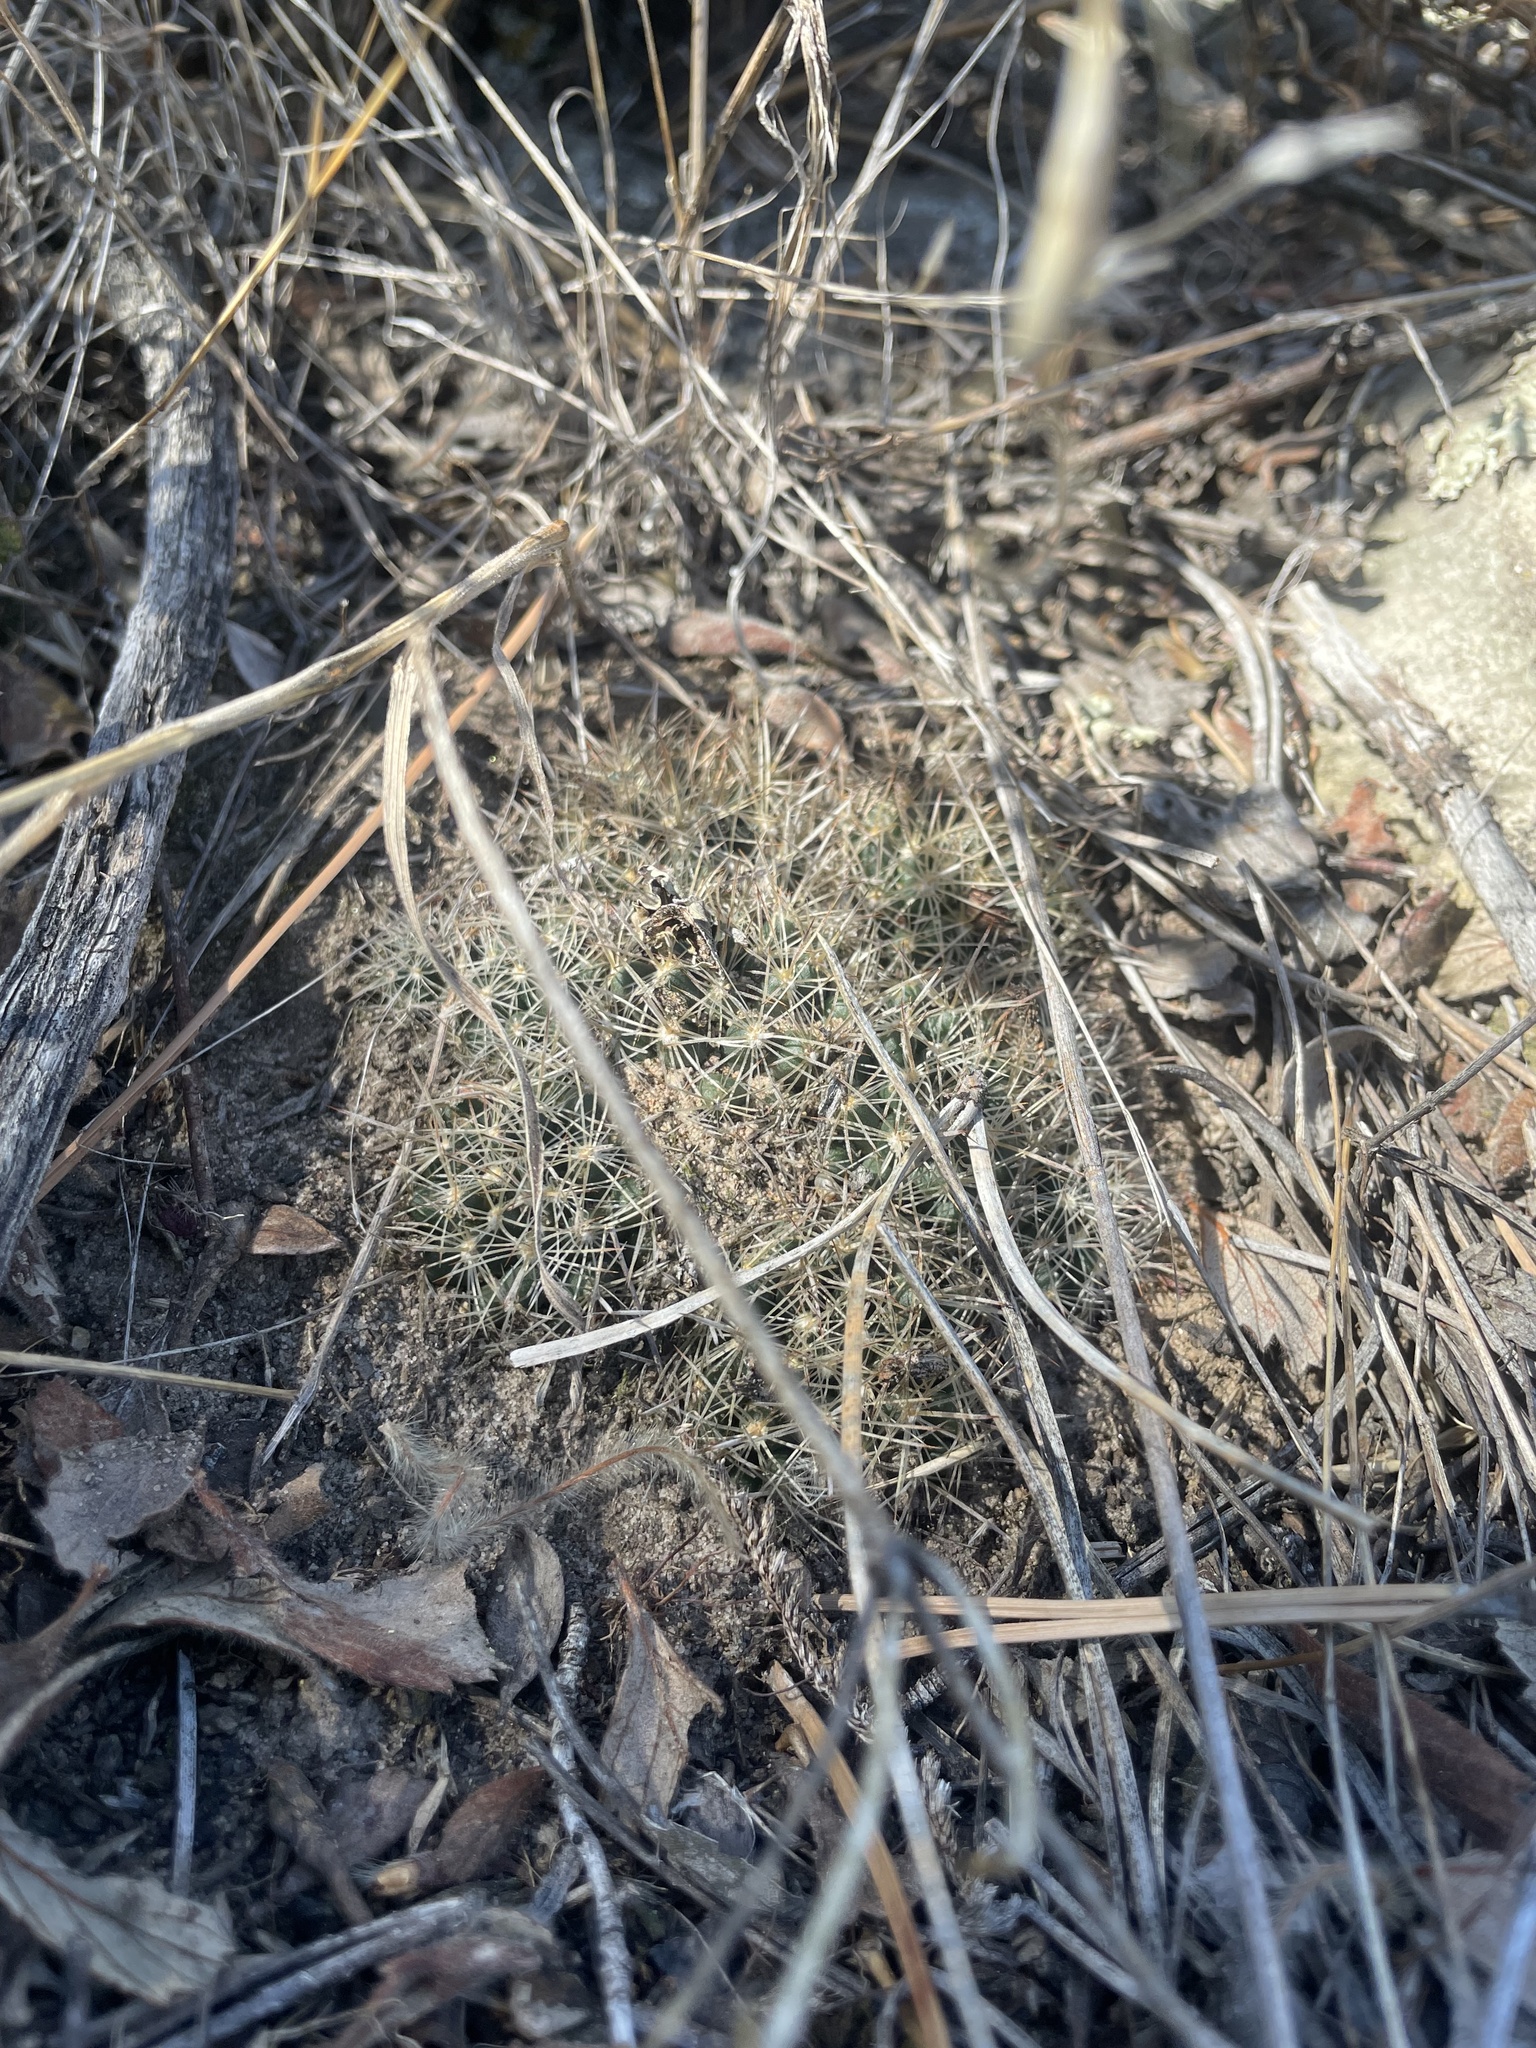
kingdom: Plantae
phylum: Tracheophyta
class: Magnoliopsida
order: Caryophyllales
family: Cactaceae
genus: Pelecyphora
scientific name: Pelecyphora missouriensis
